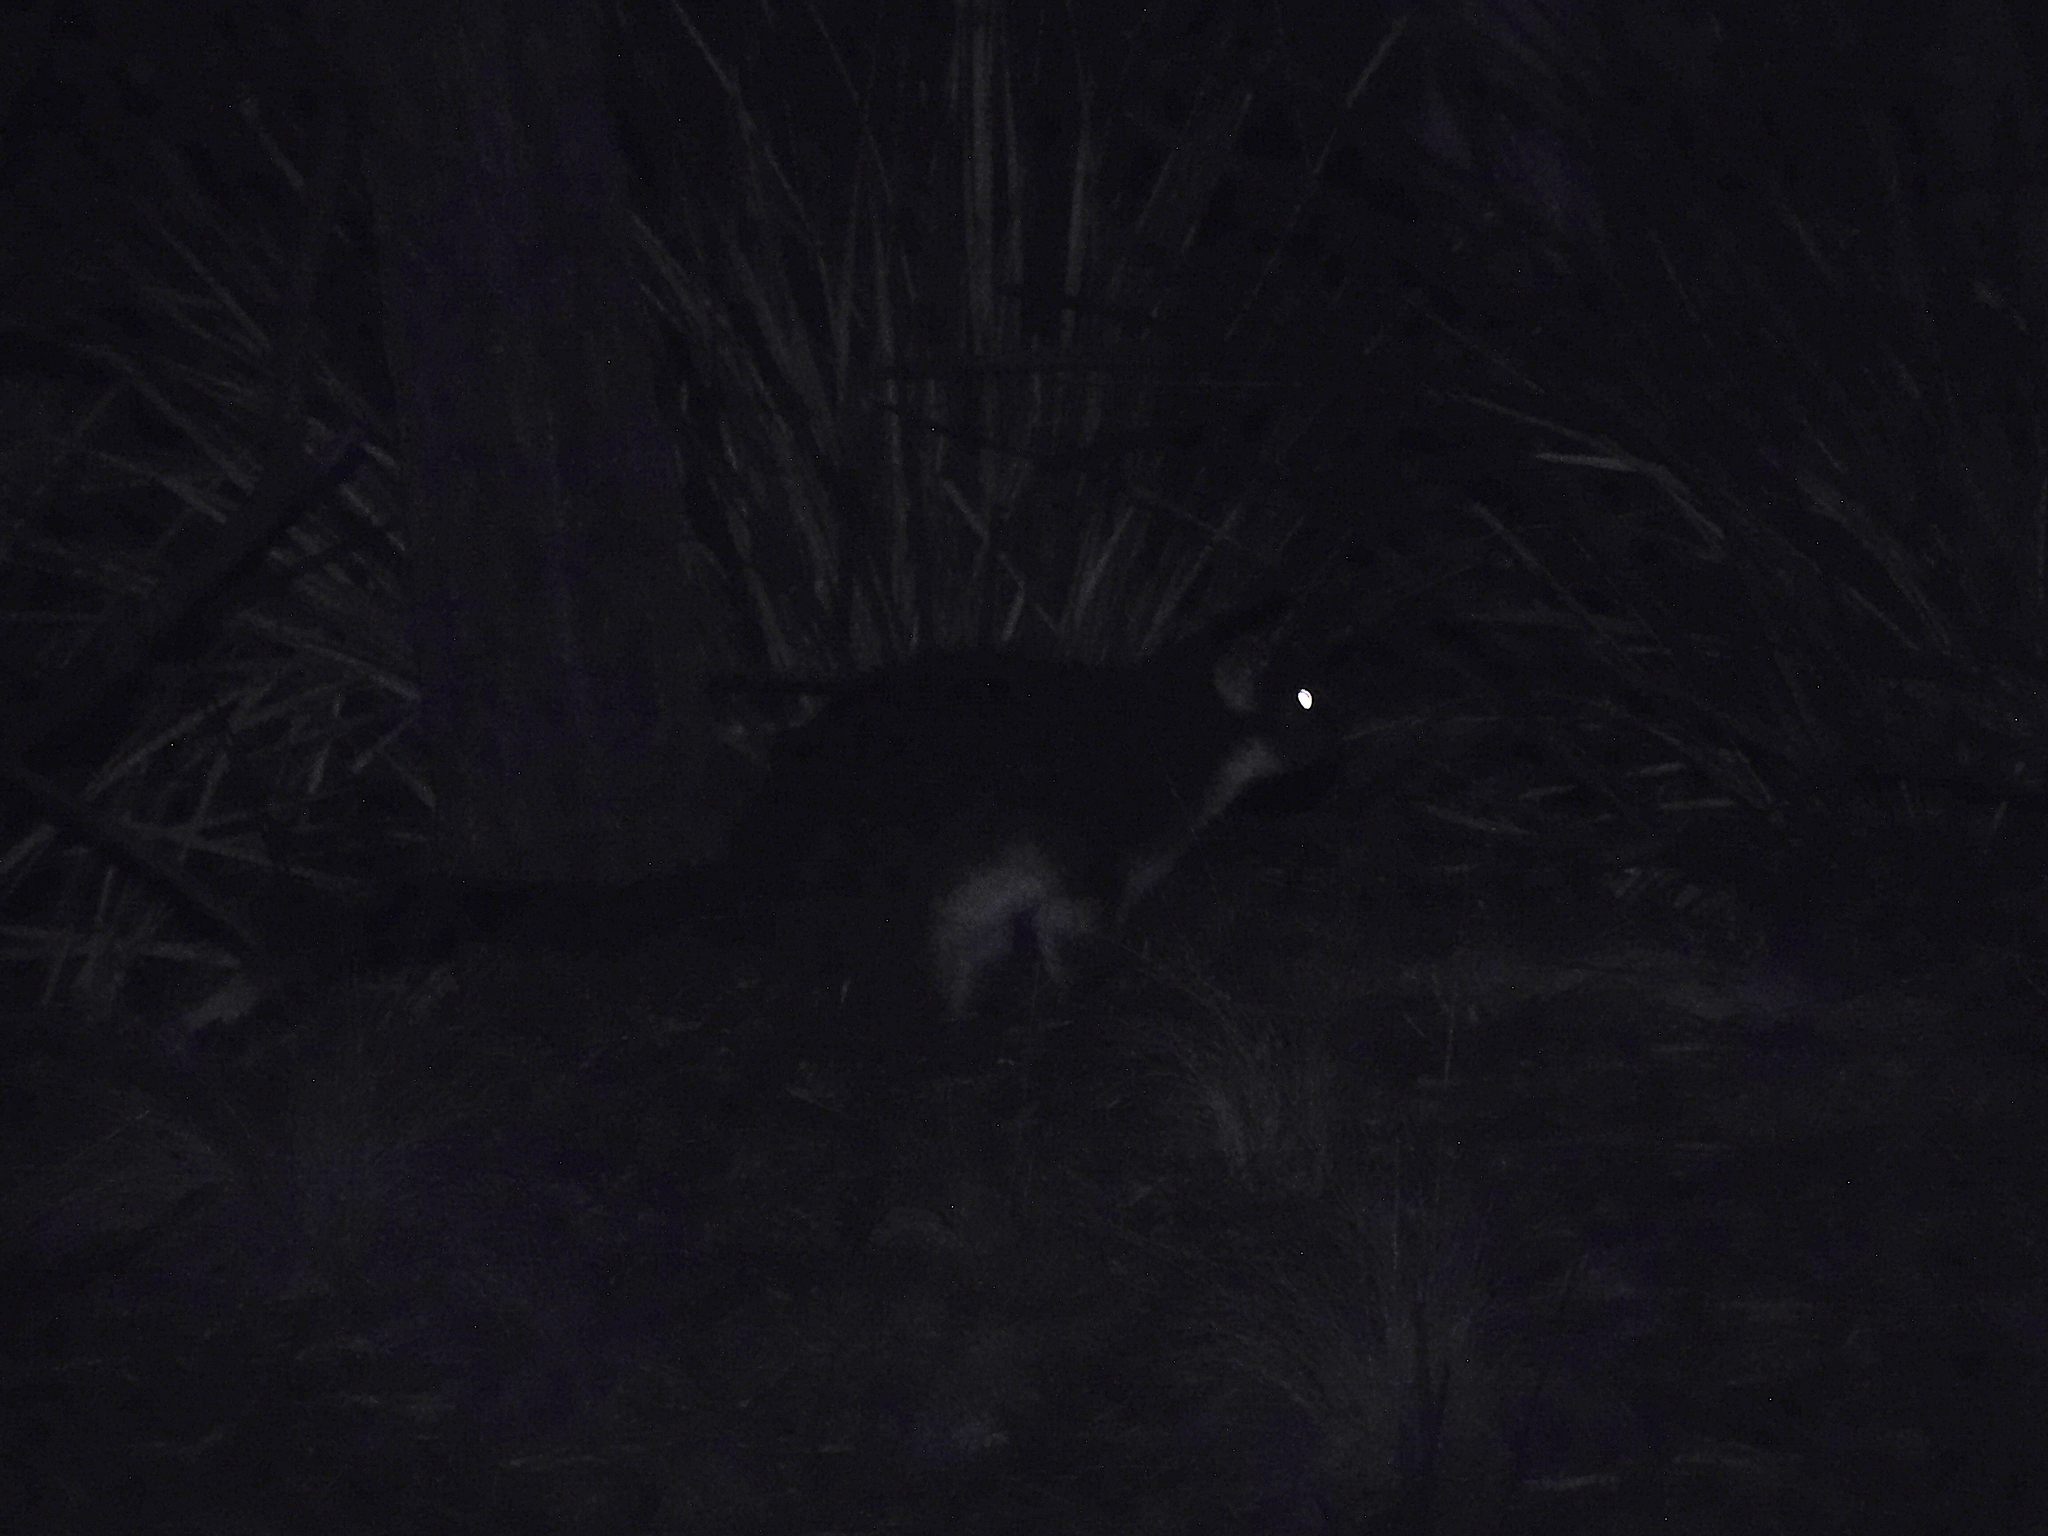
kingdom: Animalia
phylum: Chordata
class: Mammalia
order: Diprotodontia
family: Pseudocheiridae
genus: Pseudocheirus
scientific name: Pseudocheirus peregrinus
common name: Common ringtail possum
